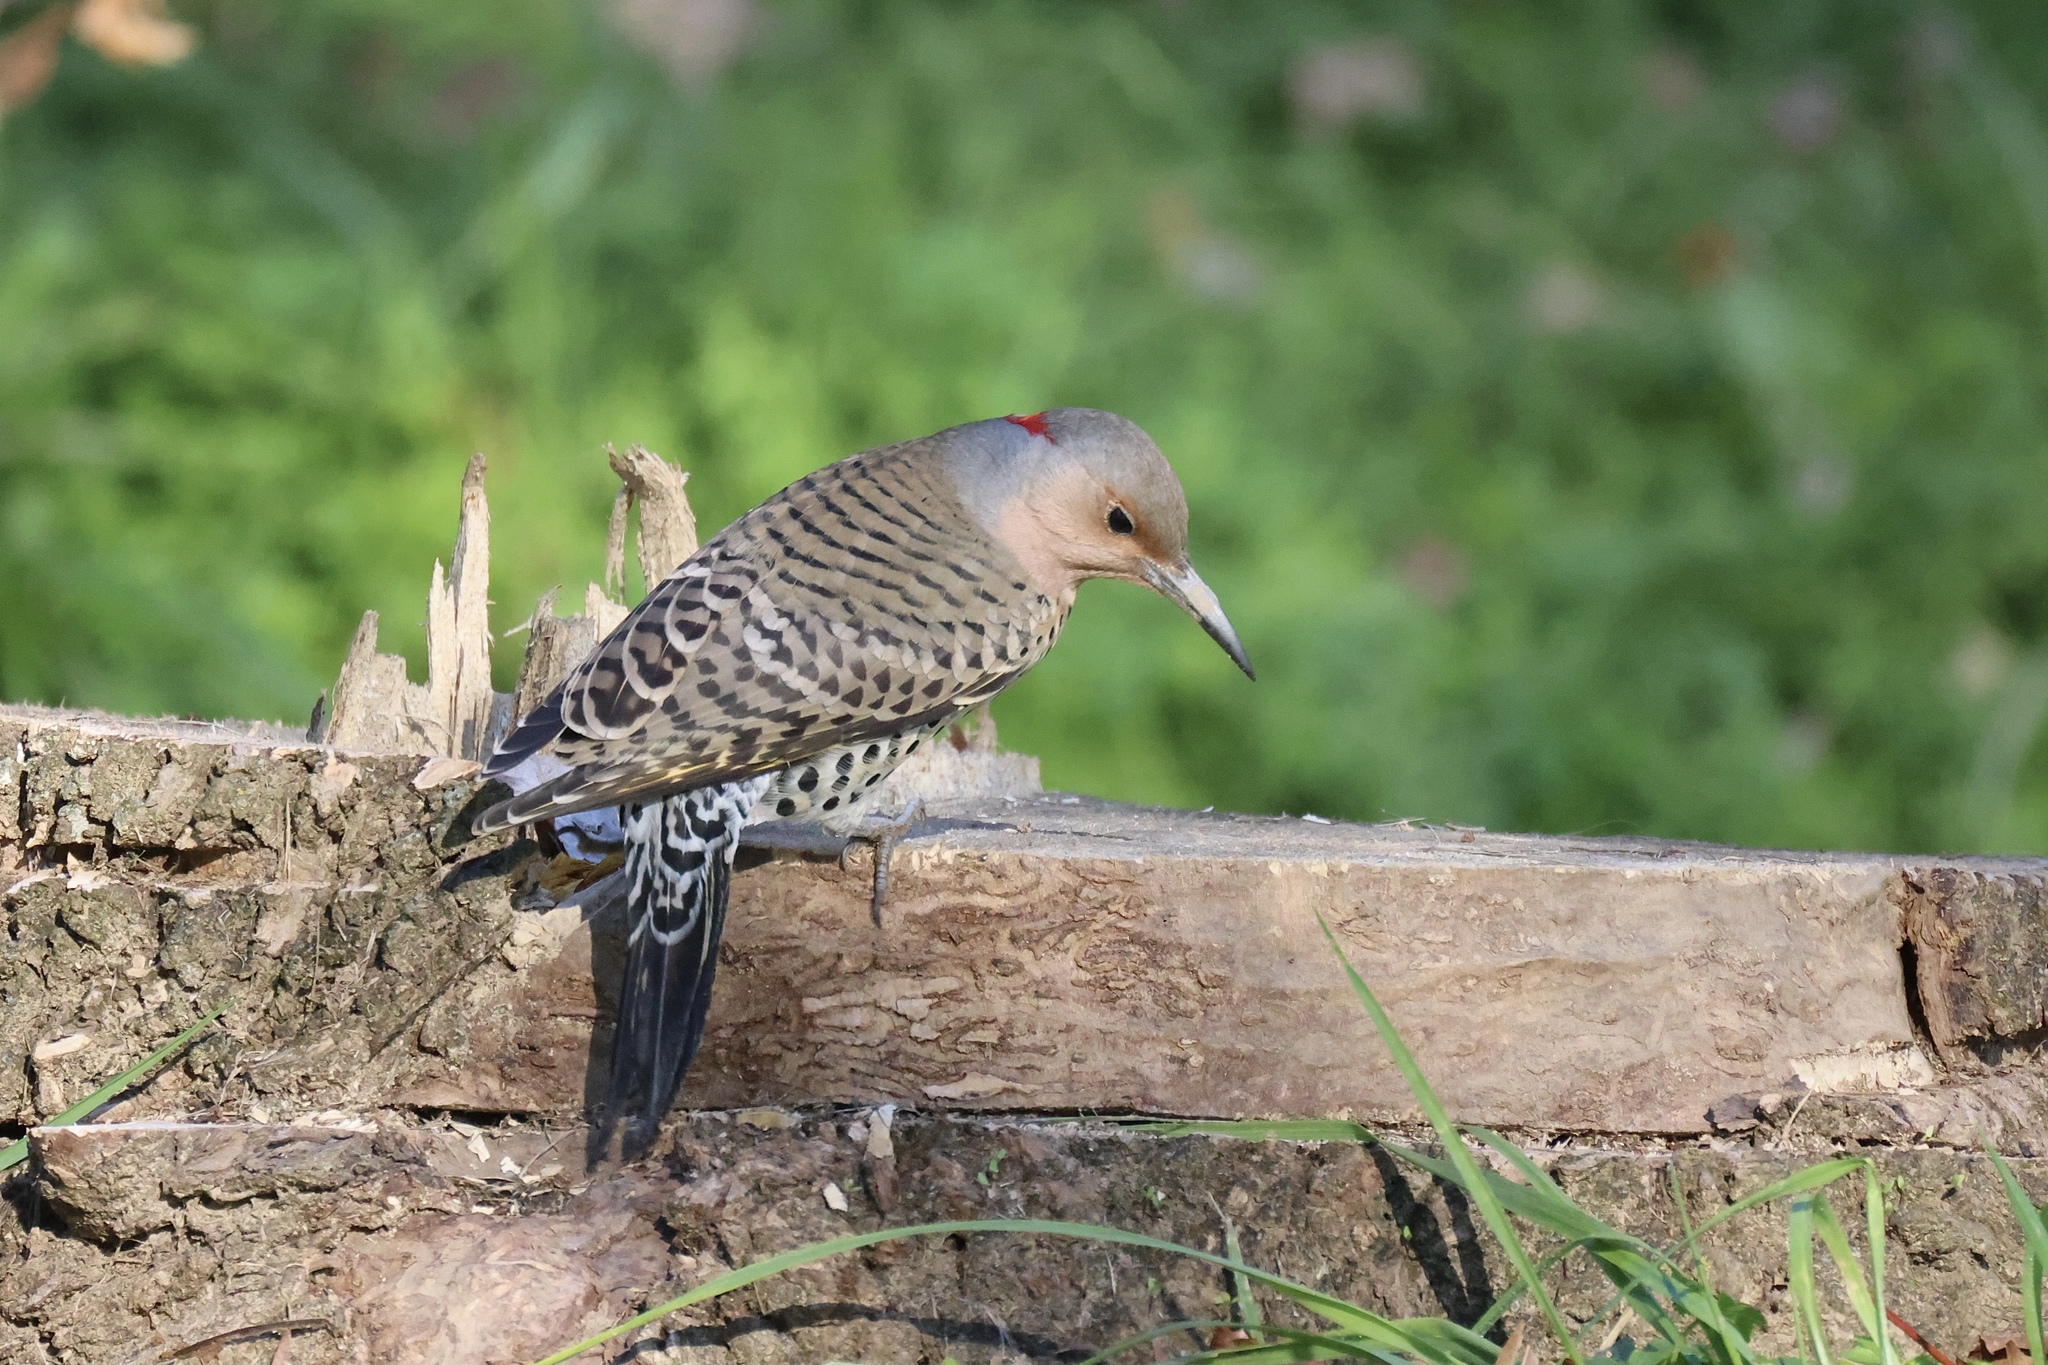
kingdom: Animalia
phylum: Chordata
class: Aves
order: Piciformes
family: Picidae
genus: Colaptes
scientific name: Colaptes auratus
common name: Northern flicker
